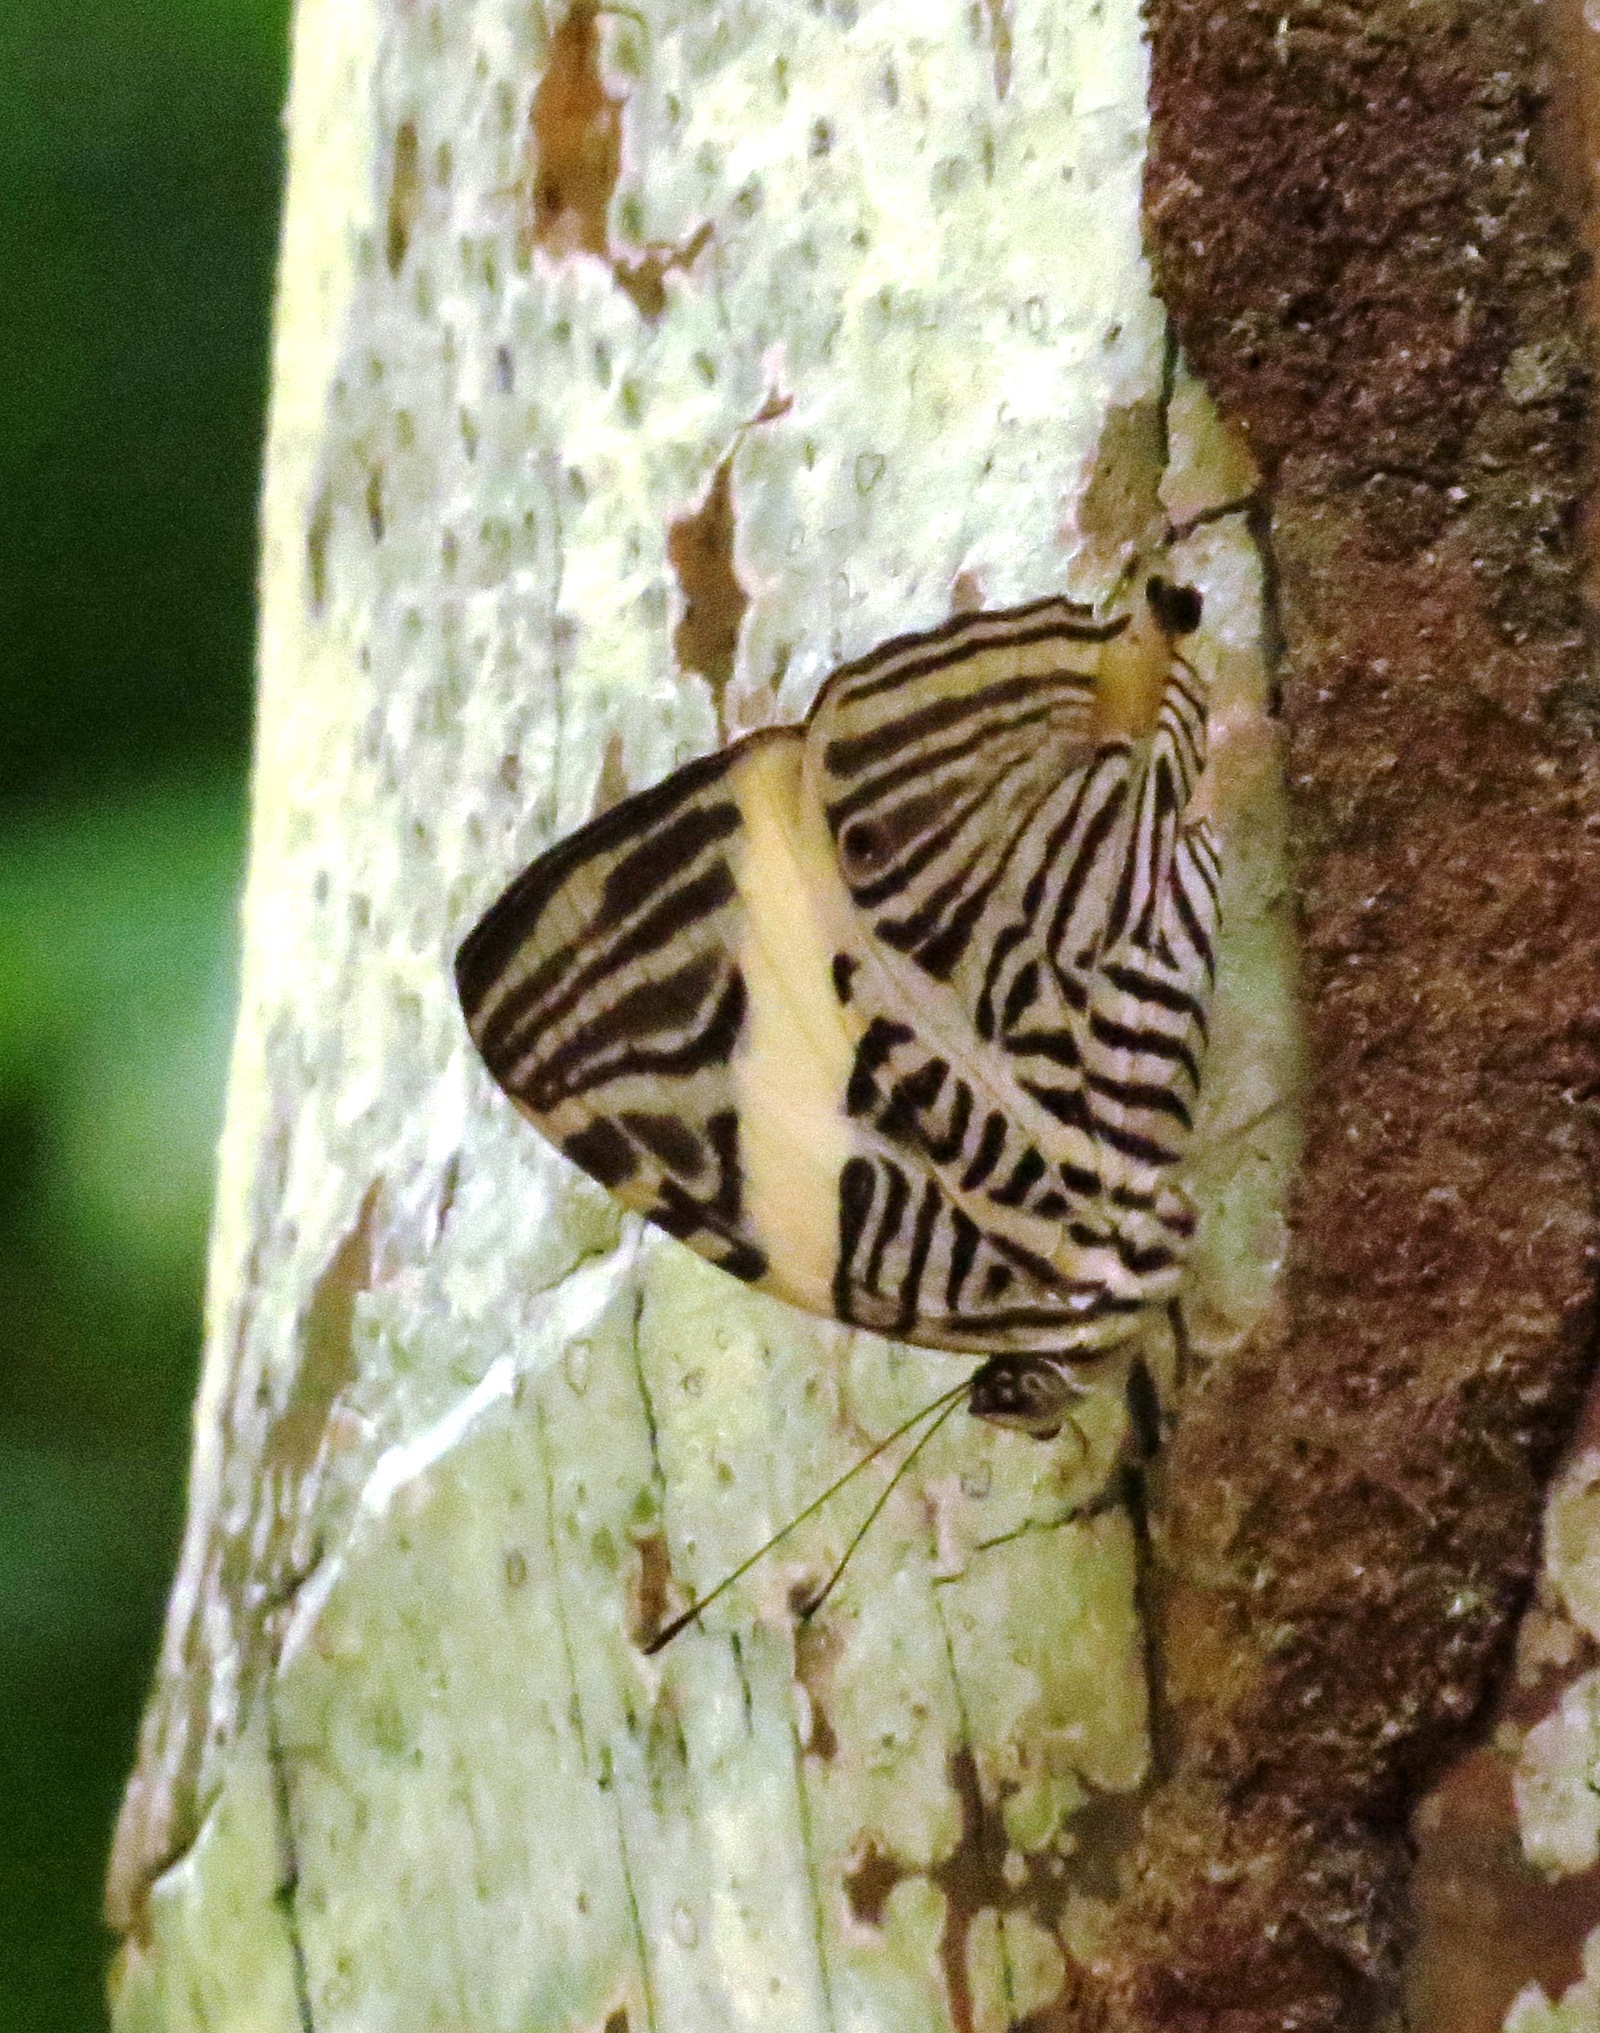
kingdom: Animalia
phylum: Arthropoda
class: Insecta
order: Lepidoptera
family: Nymphalidae
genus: Colobura
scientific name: Colobura dirce
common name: Dirce beauty
